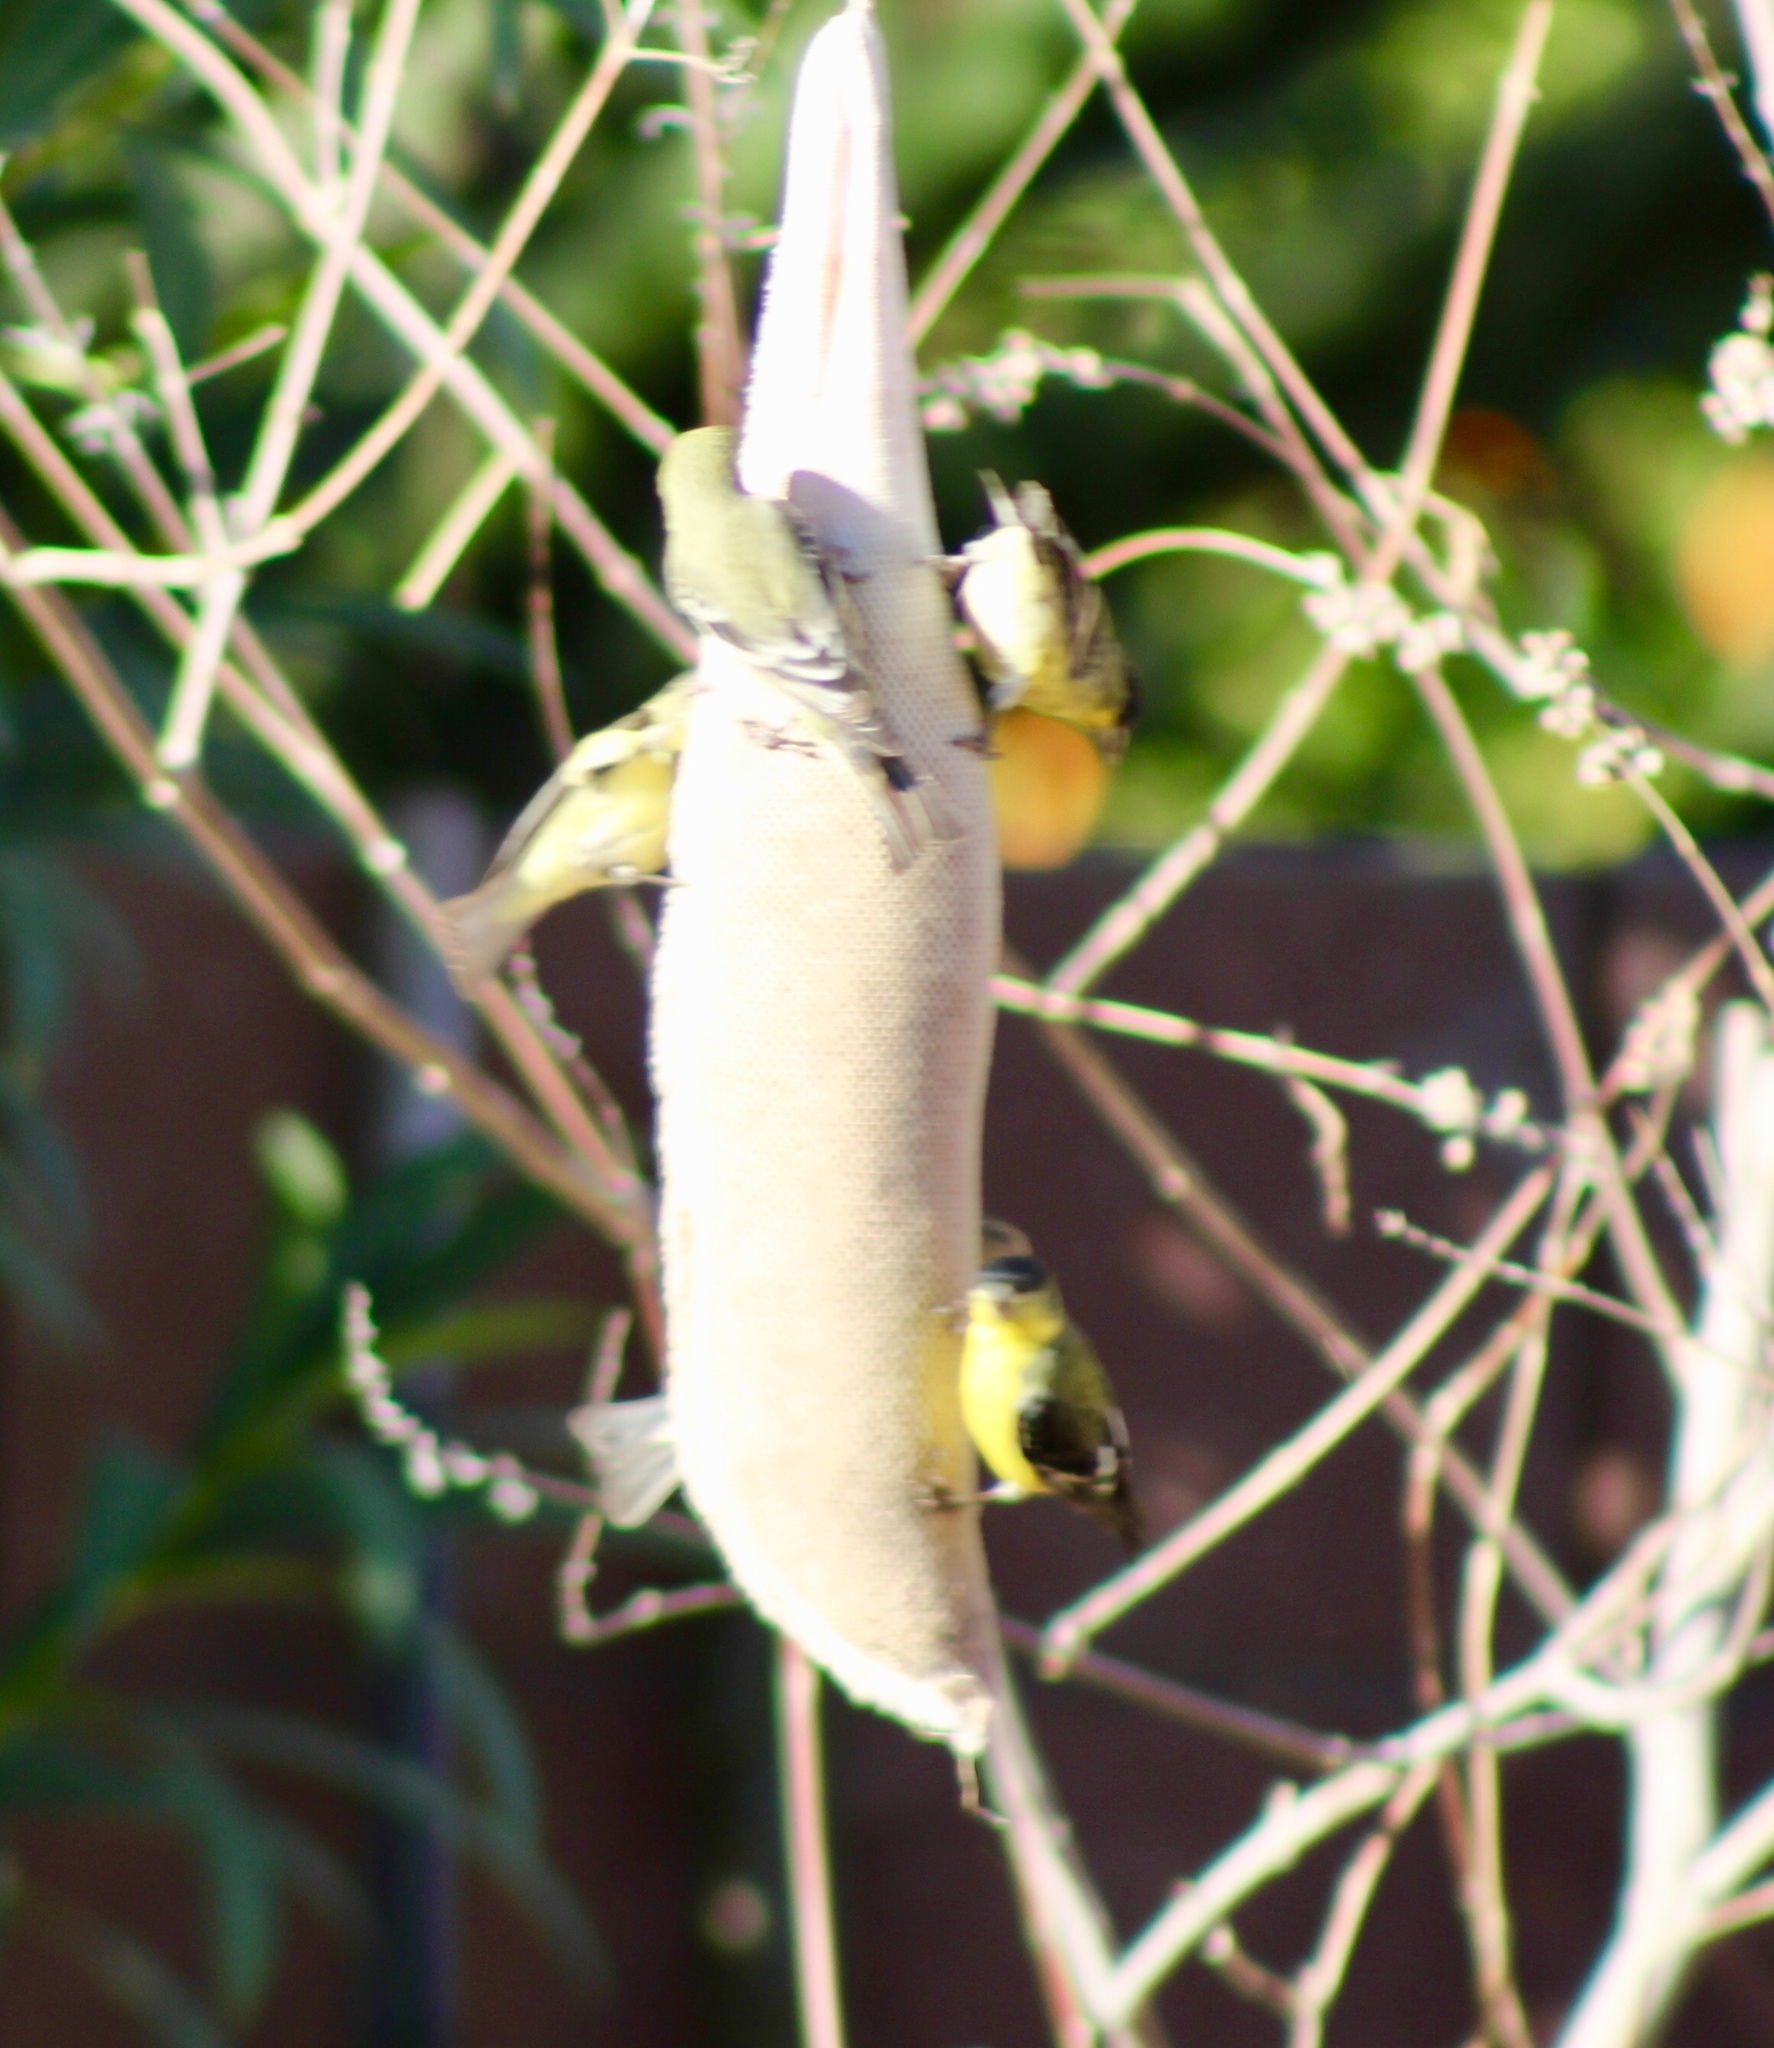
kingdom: Animalia
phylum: Chordata
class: Aves
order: Passeriformes
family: Fringillidae
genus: Spinus
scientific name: Spinus psaltria
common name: Lesser goldfinch
